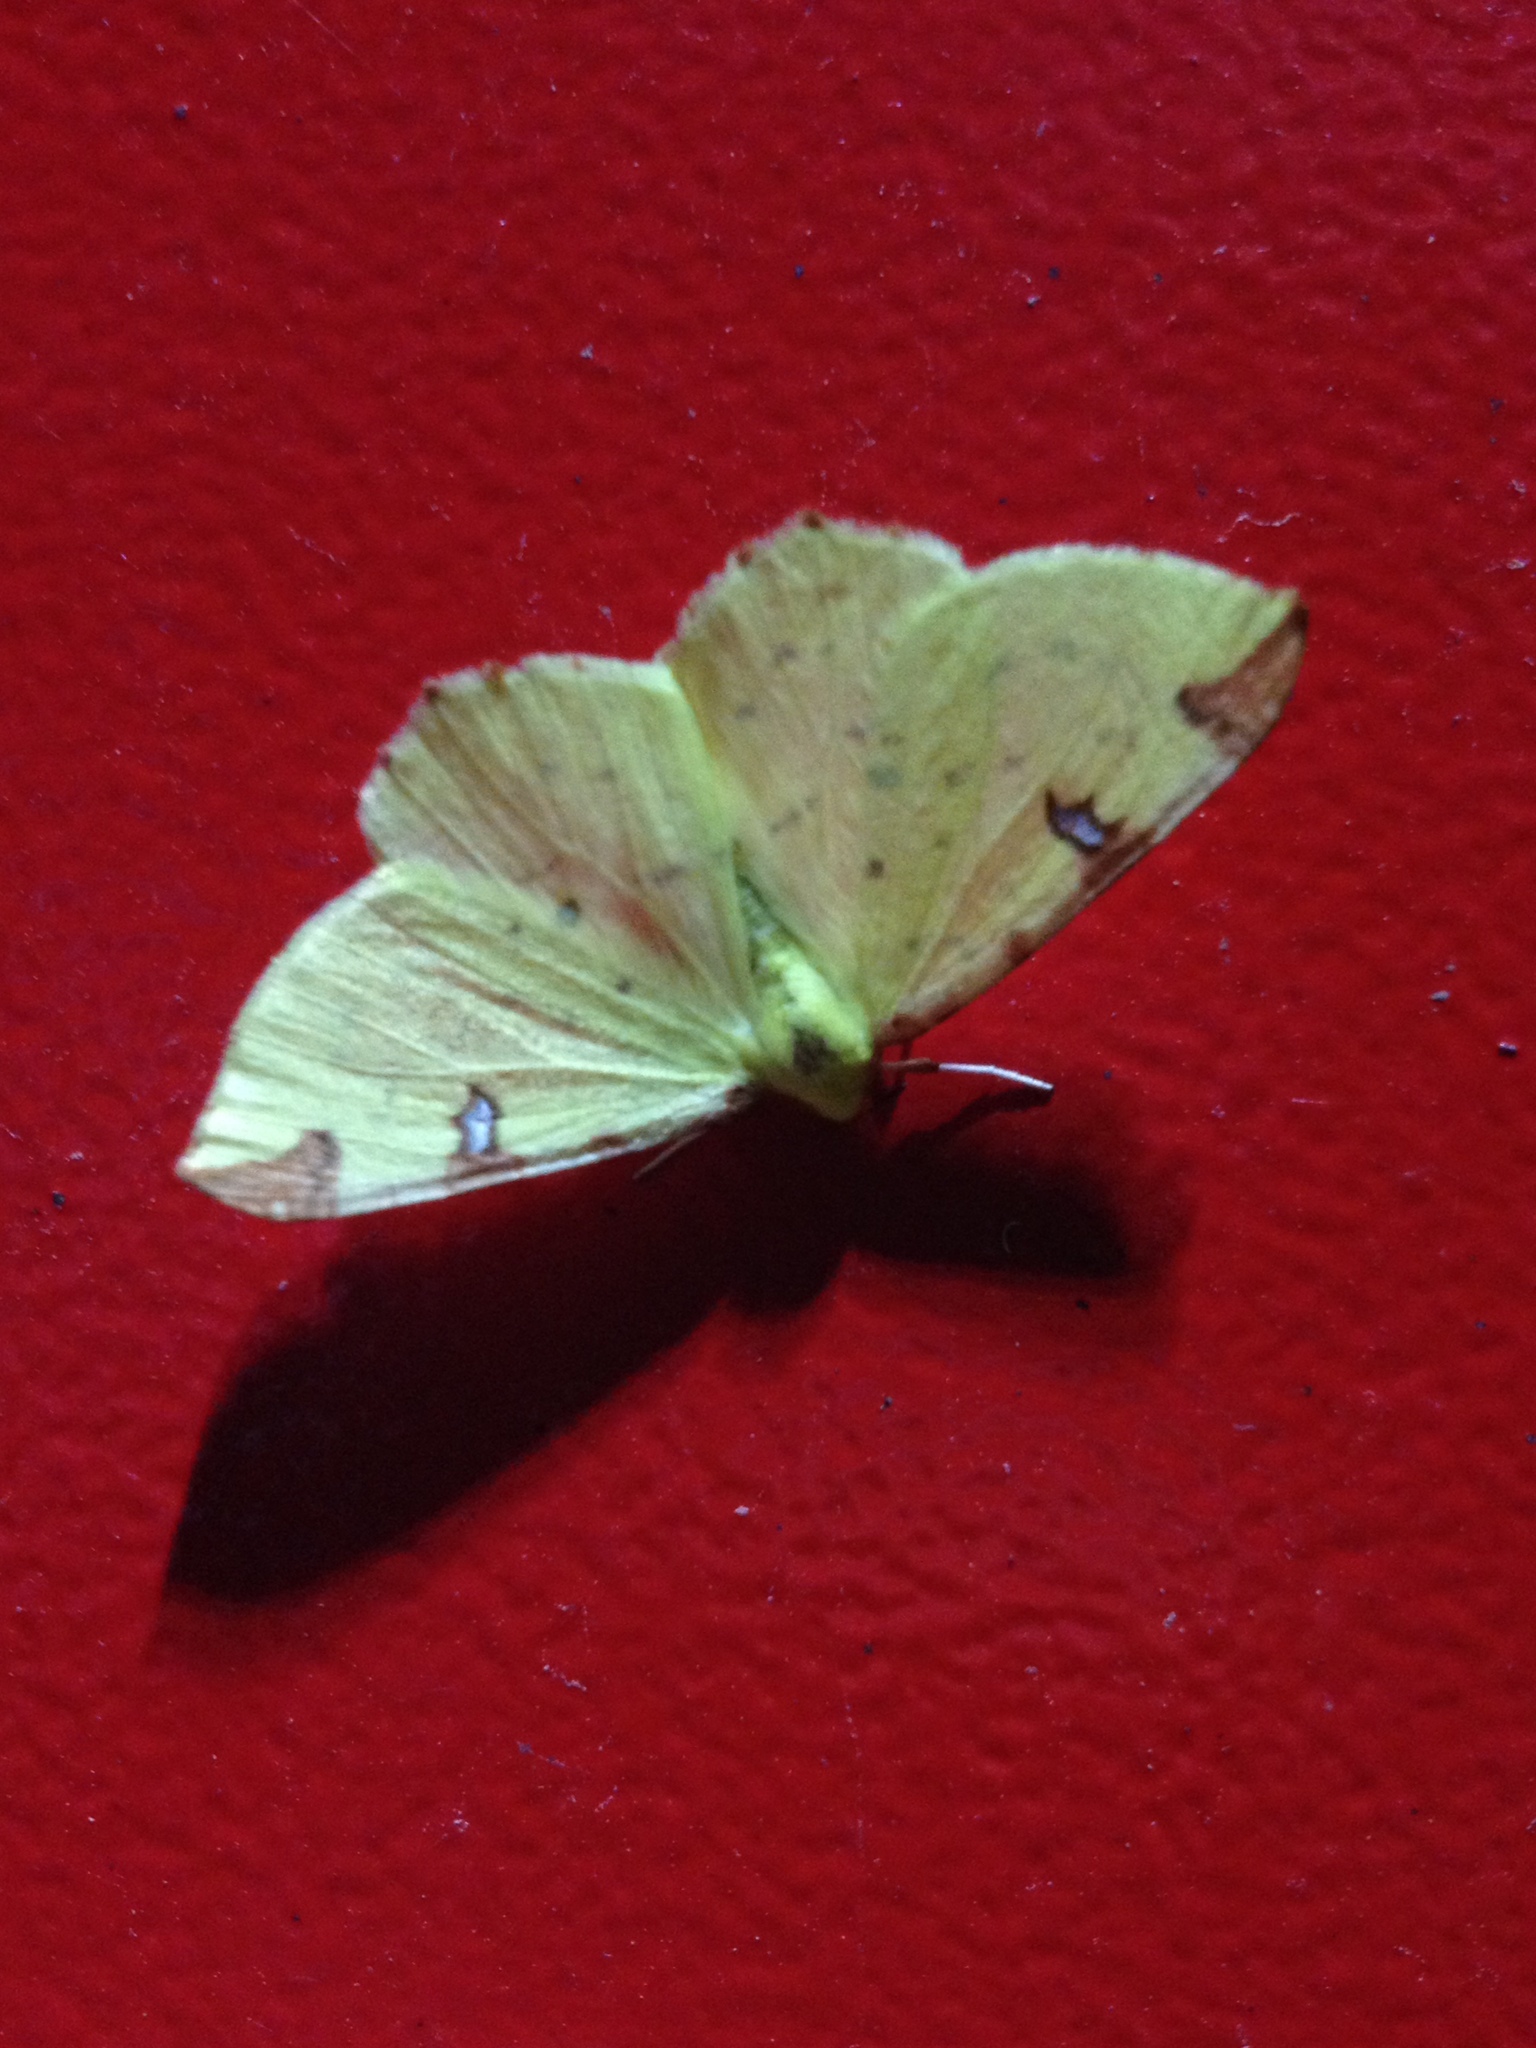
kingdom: Animalia
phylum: Arthropoda
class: Insecta
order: Lepidoptera
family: Geometridae
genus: Opisthograptis
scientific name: Opisthograptis luteolata
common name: Brimstone moth
